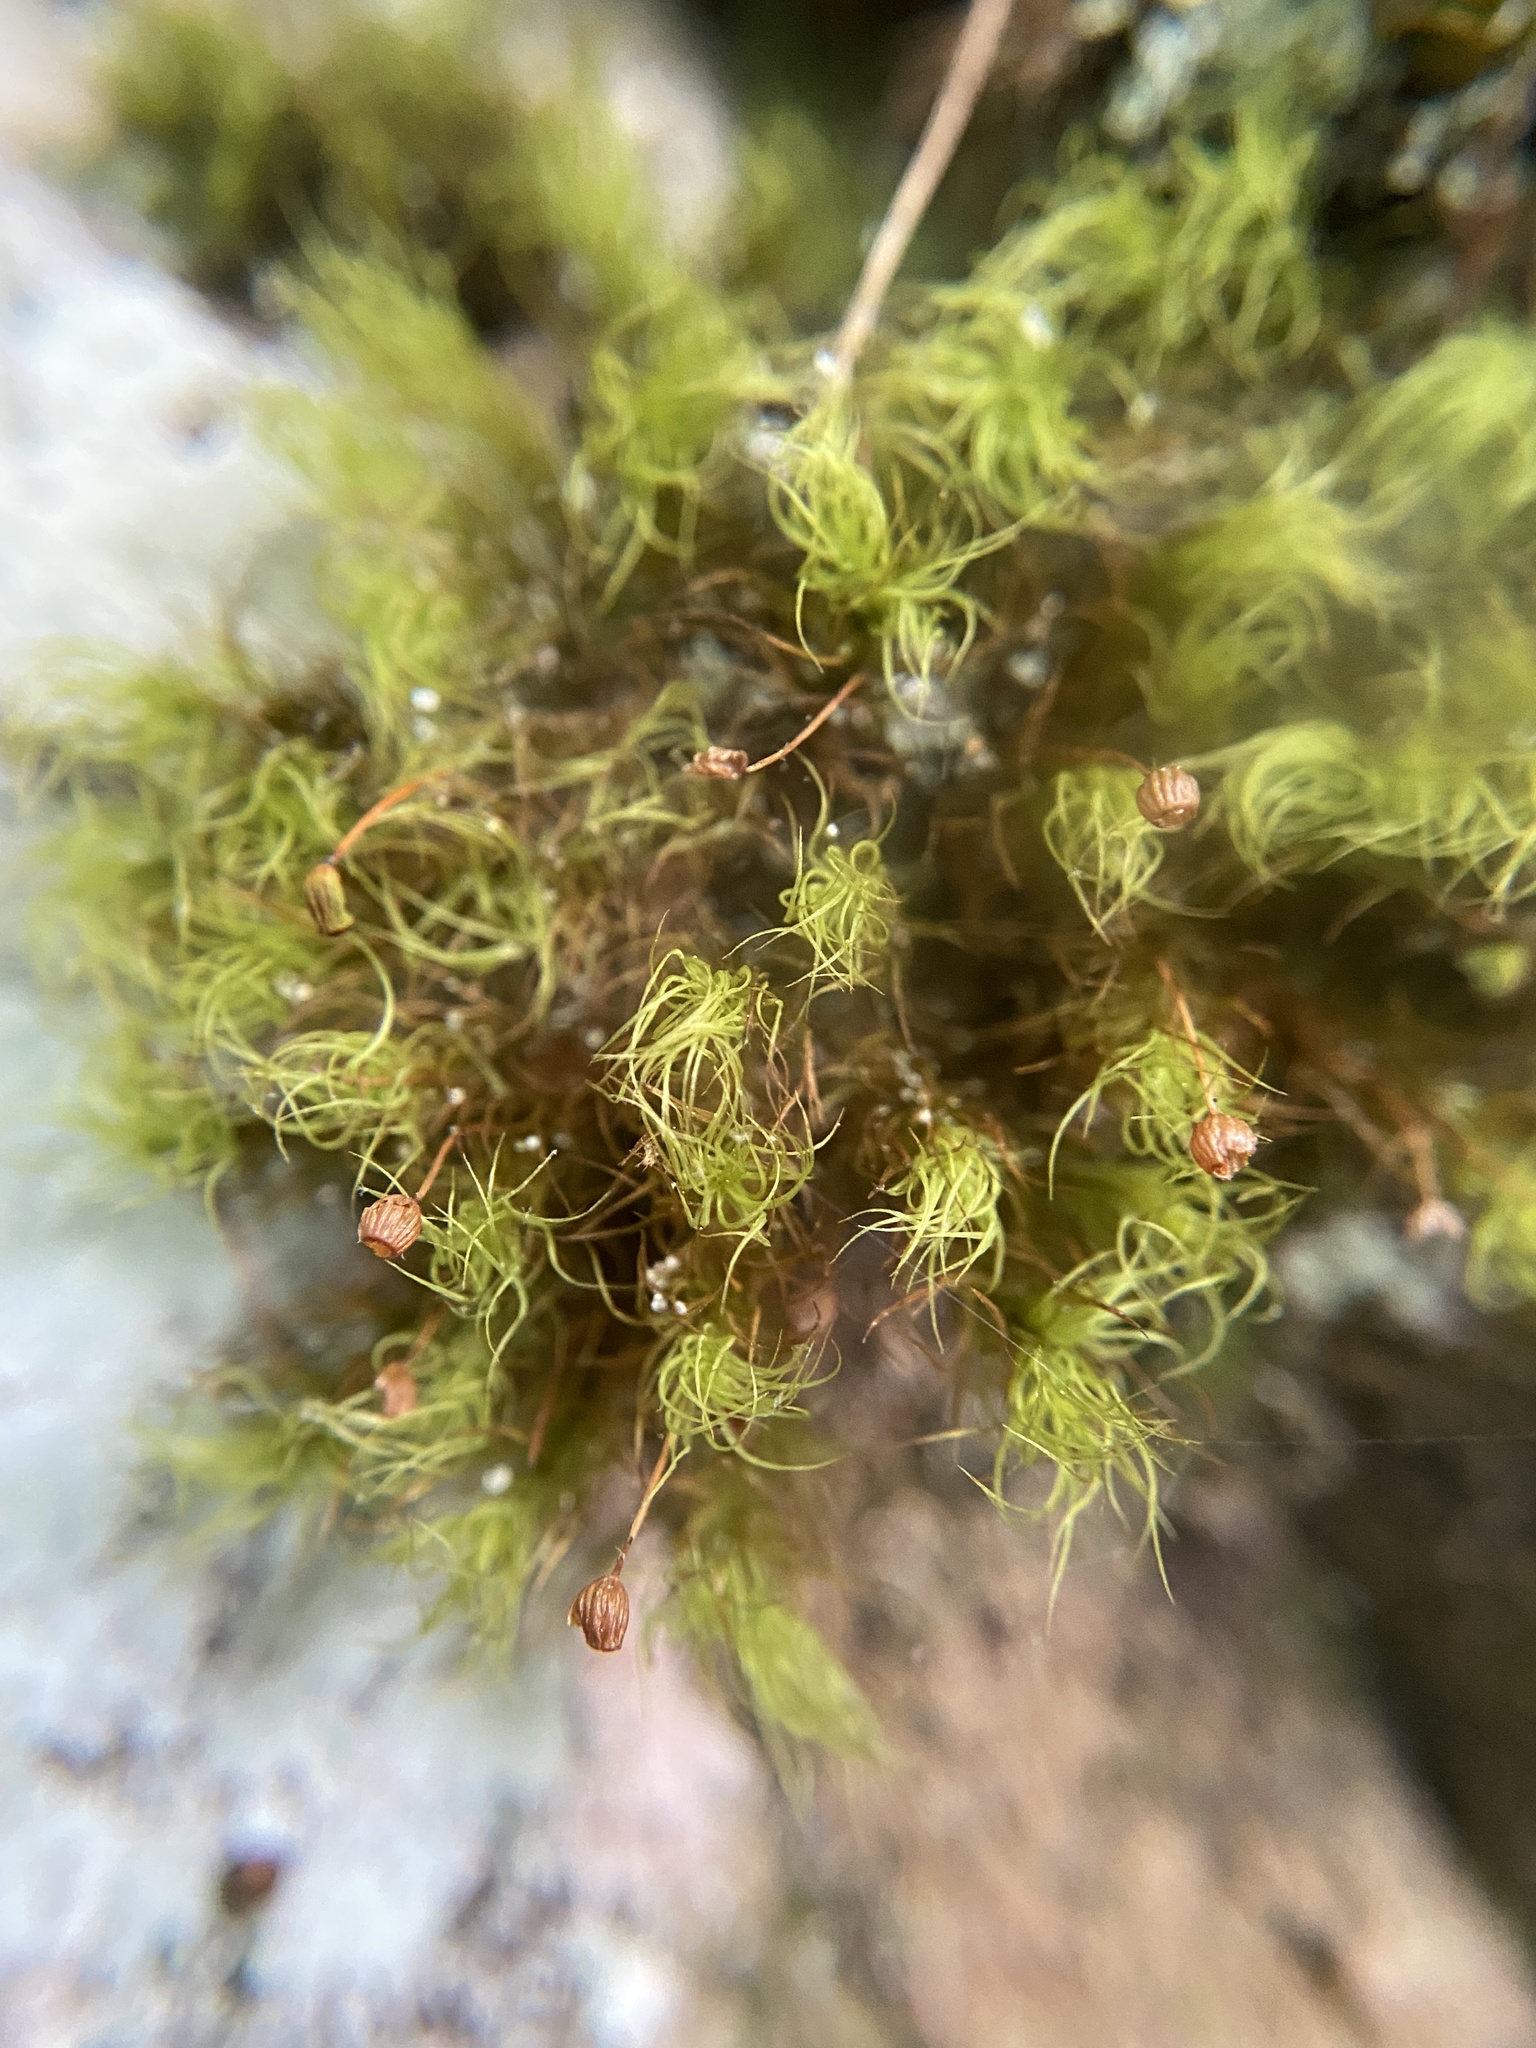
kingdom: Plantae
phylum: Bryophyta
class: Bryopsida
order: Bartramiales
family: Bartramiaceae
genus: Bartramia
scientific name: Bartramia ithyphylla
